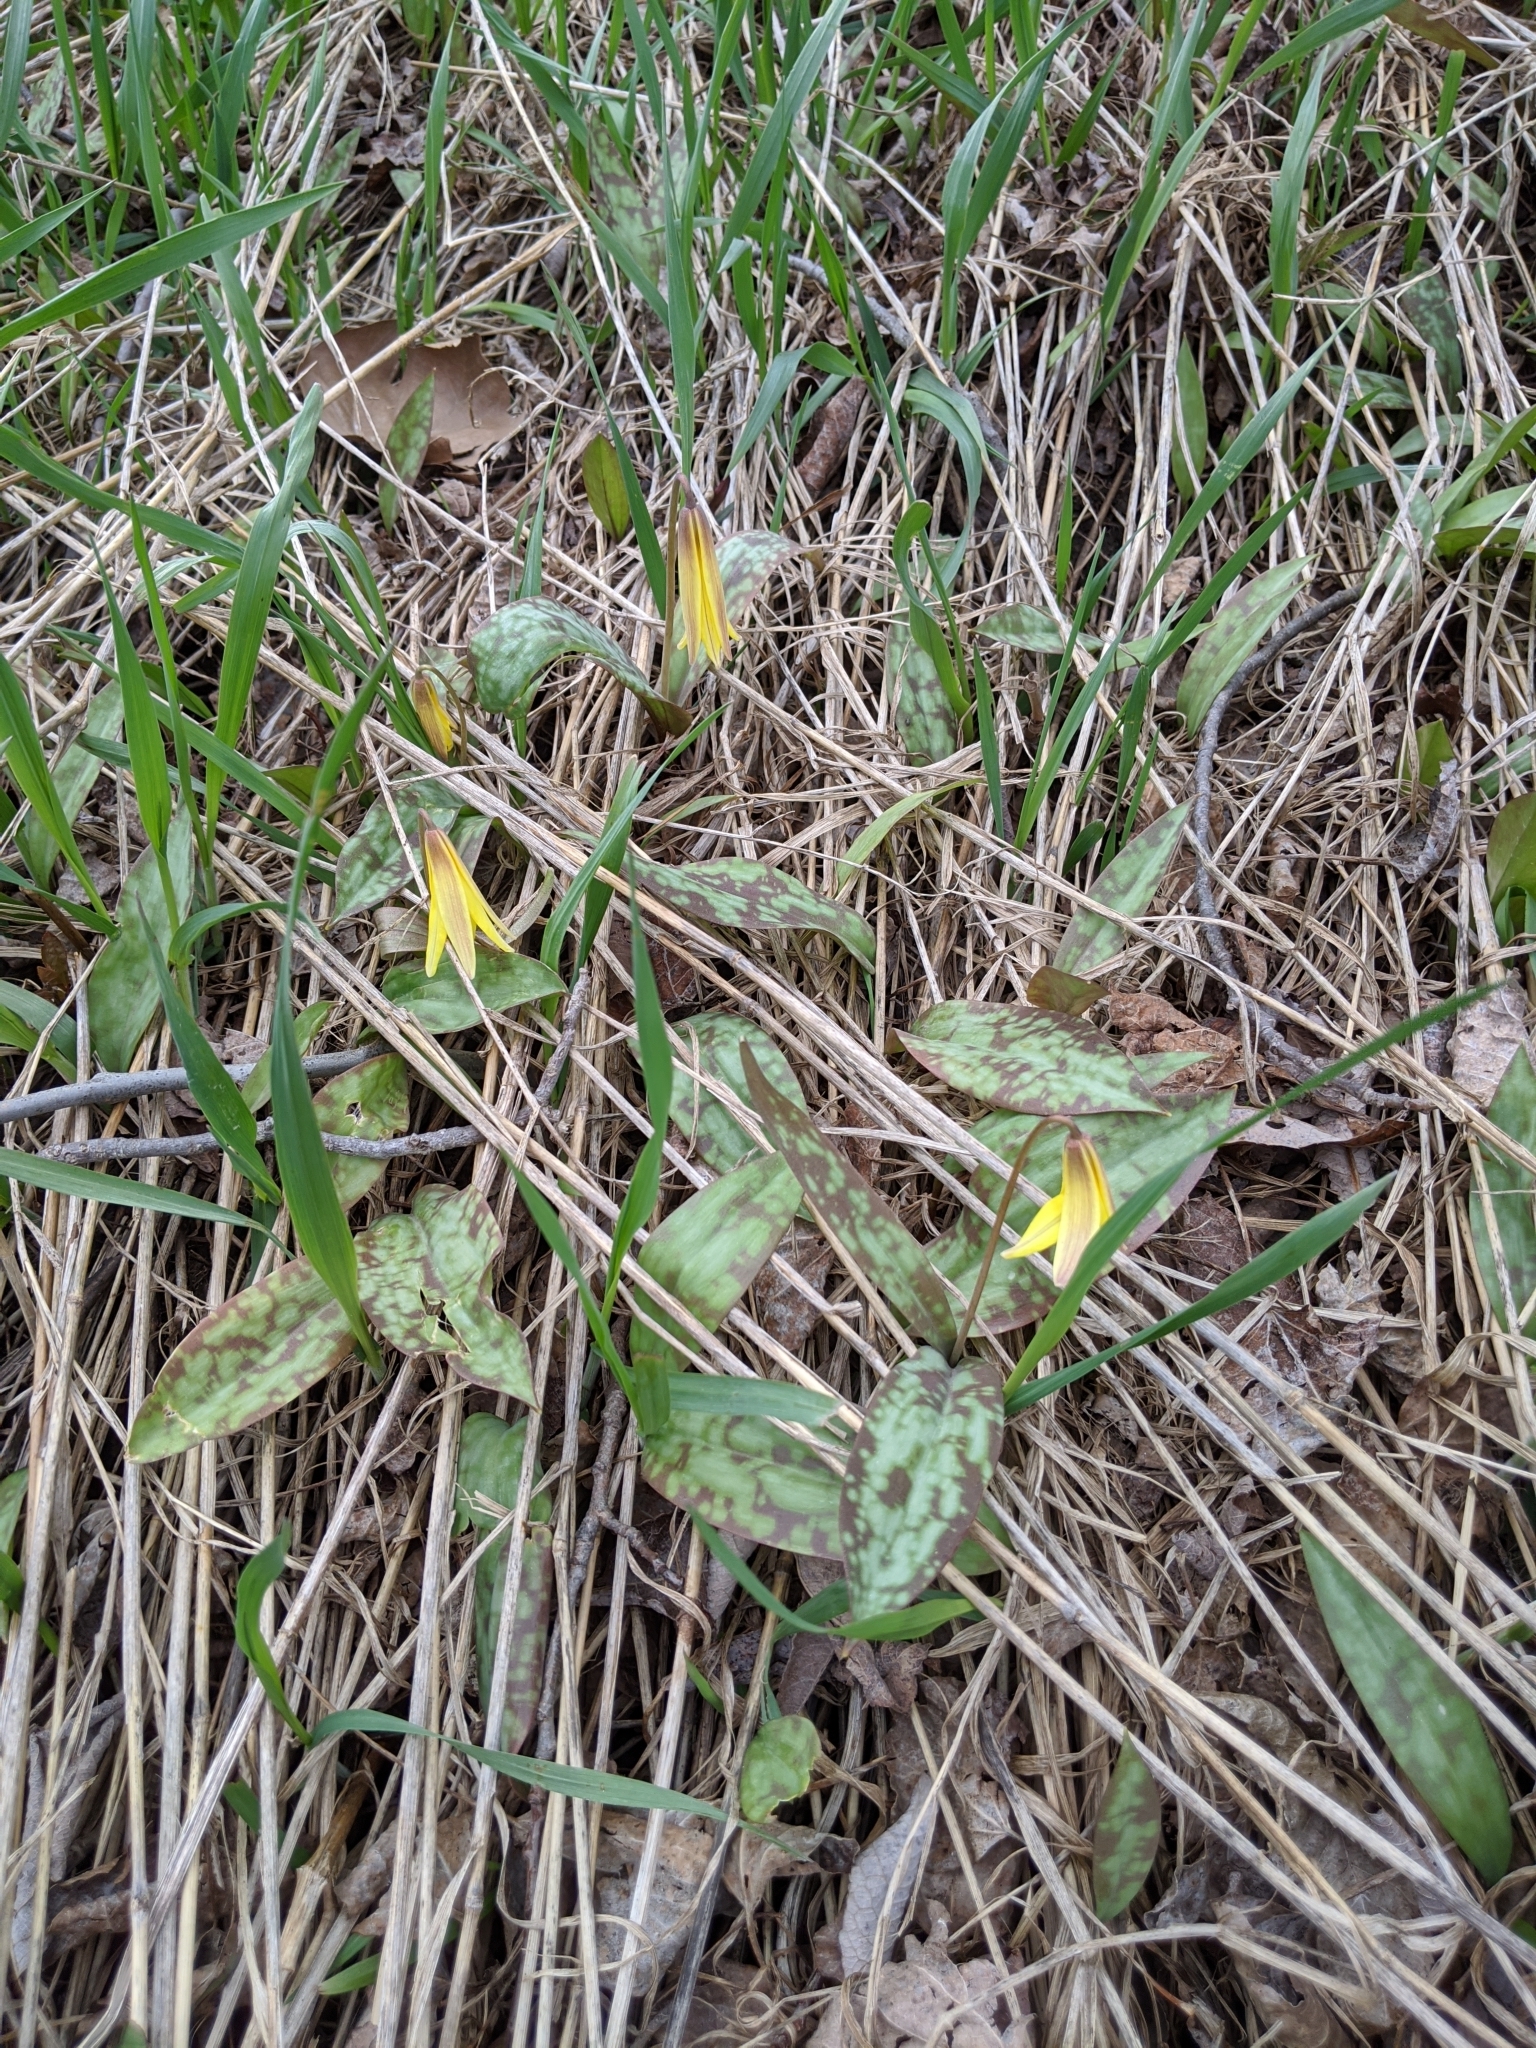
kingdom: Plantae
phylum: Tracheophyta
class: Liliopsida
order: Liliales
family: Liliaceae
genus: Erythronium
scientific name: Erythronium americanum
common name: Yellow adder's-tongue
